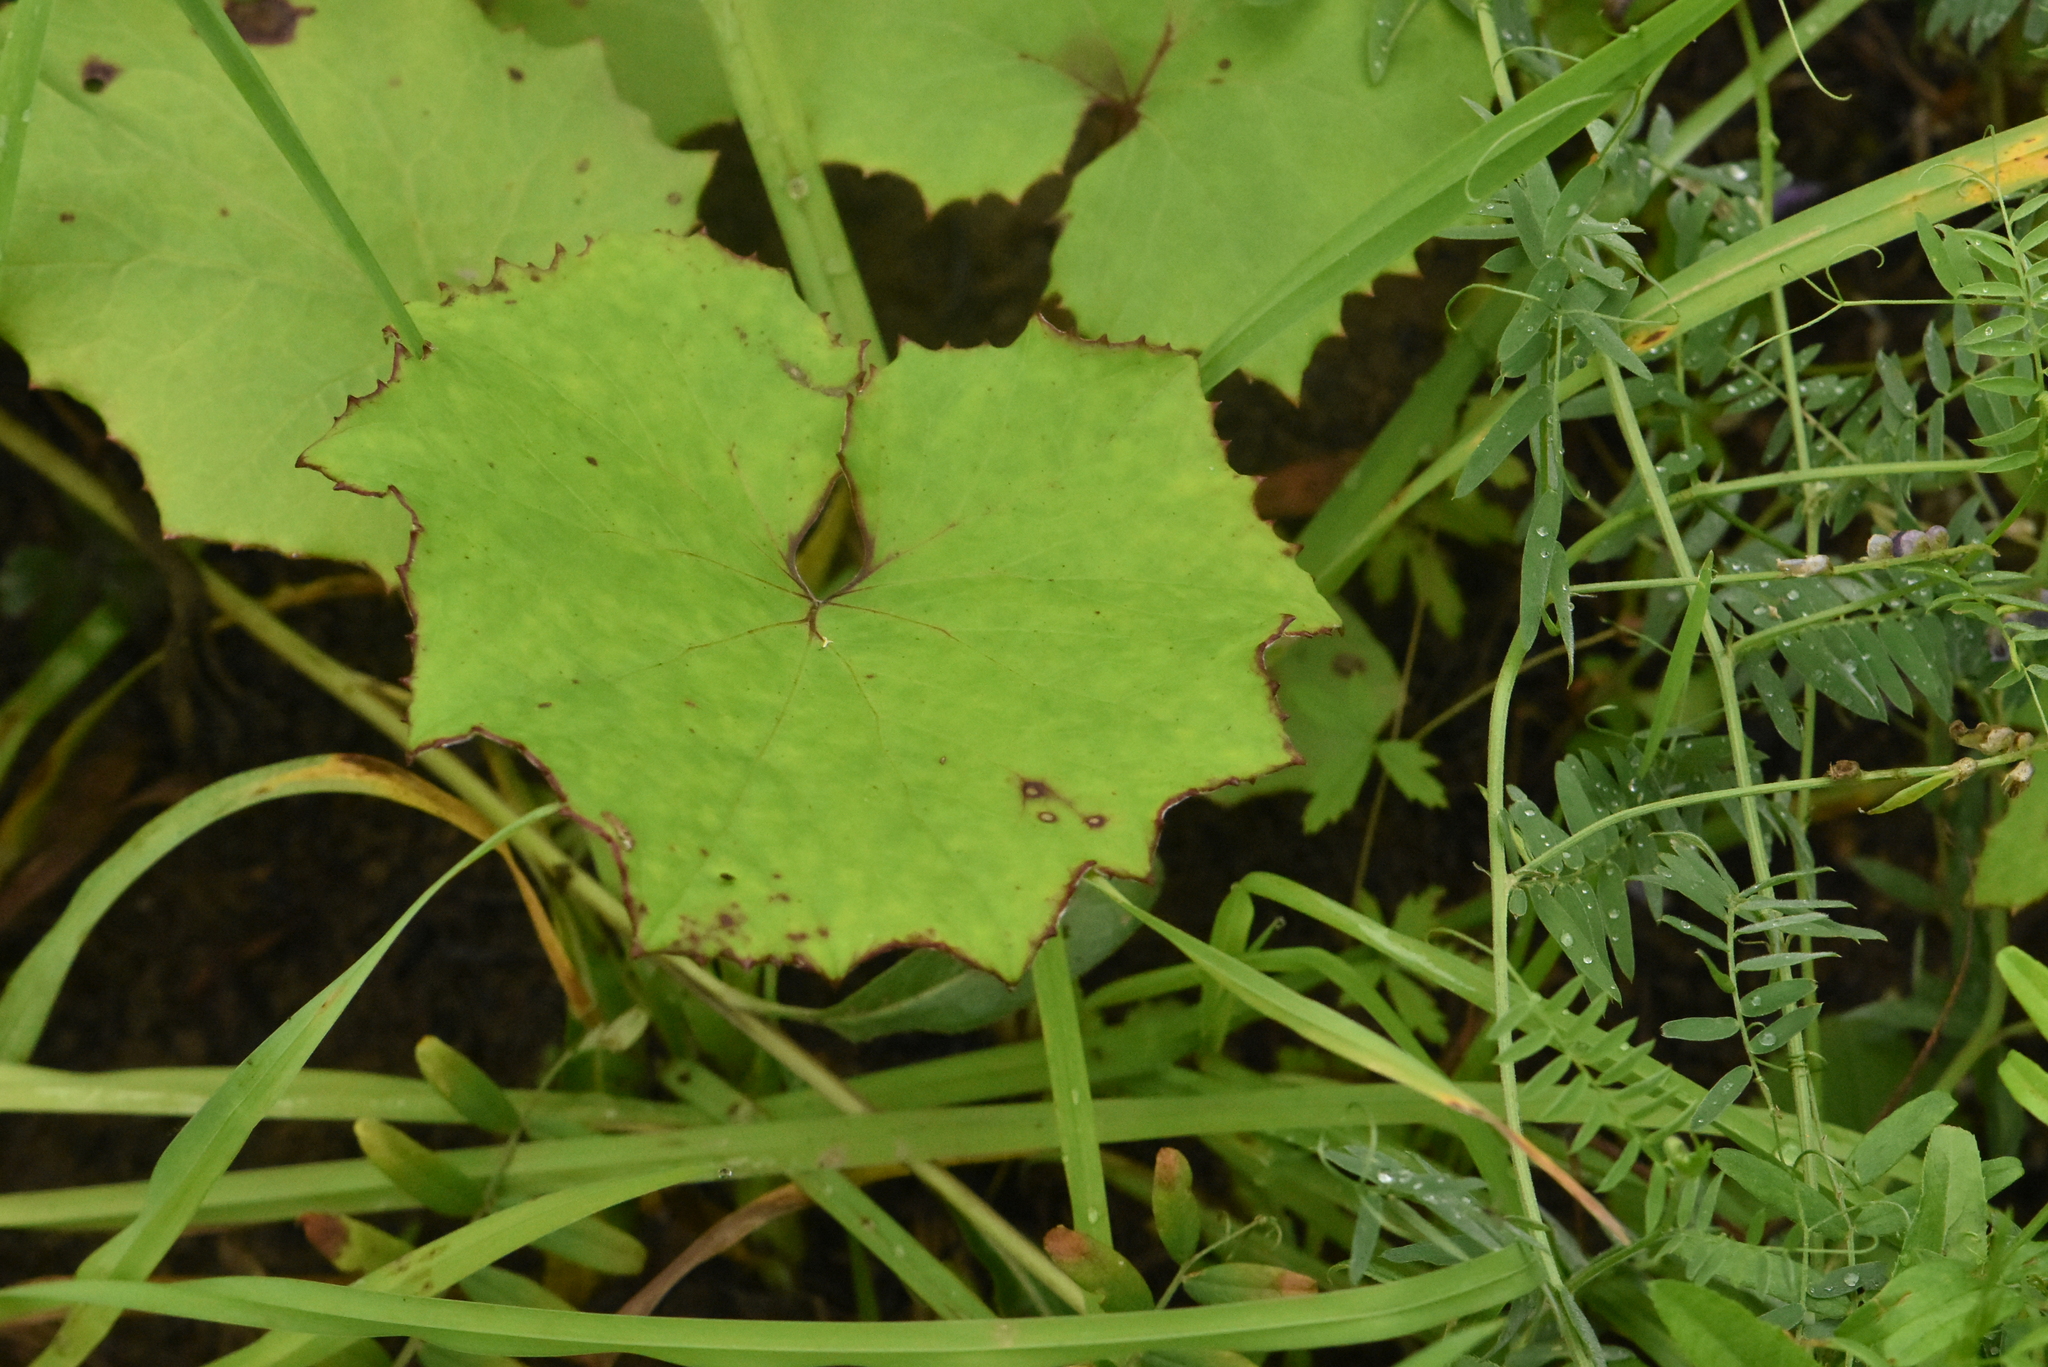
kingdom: Plantae
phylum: Tracheophyta
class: Magnoliopsida
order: Asterales
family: Asteraceae
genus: Tussilago
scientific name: Tussilago farfara
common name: Coltsfoot
